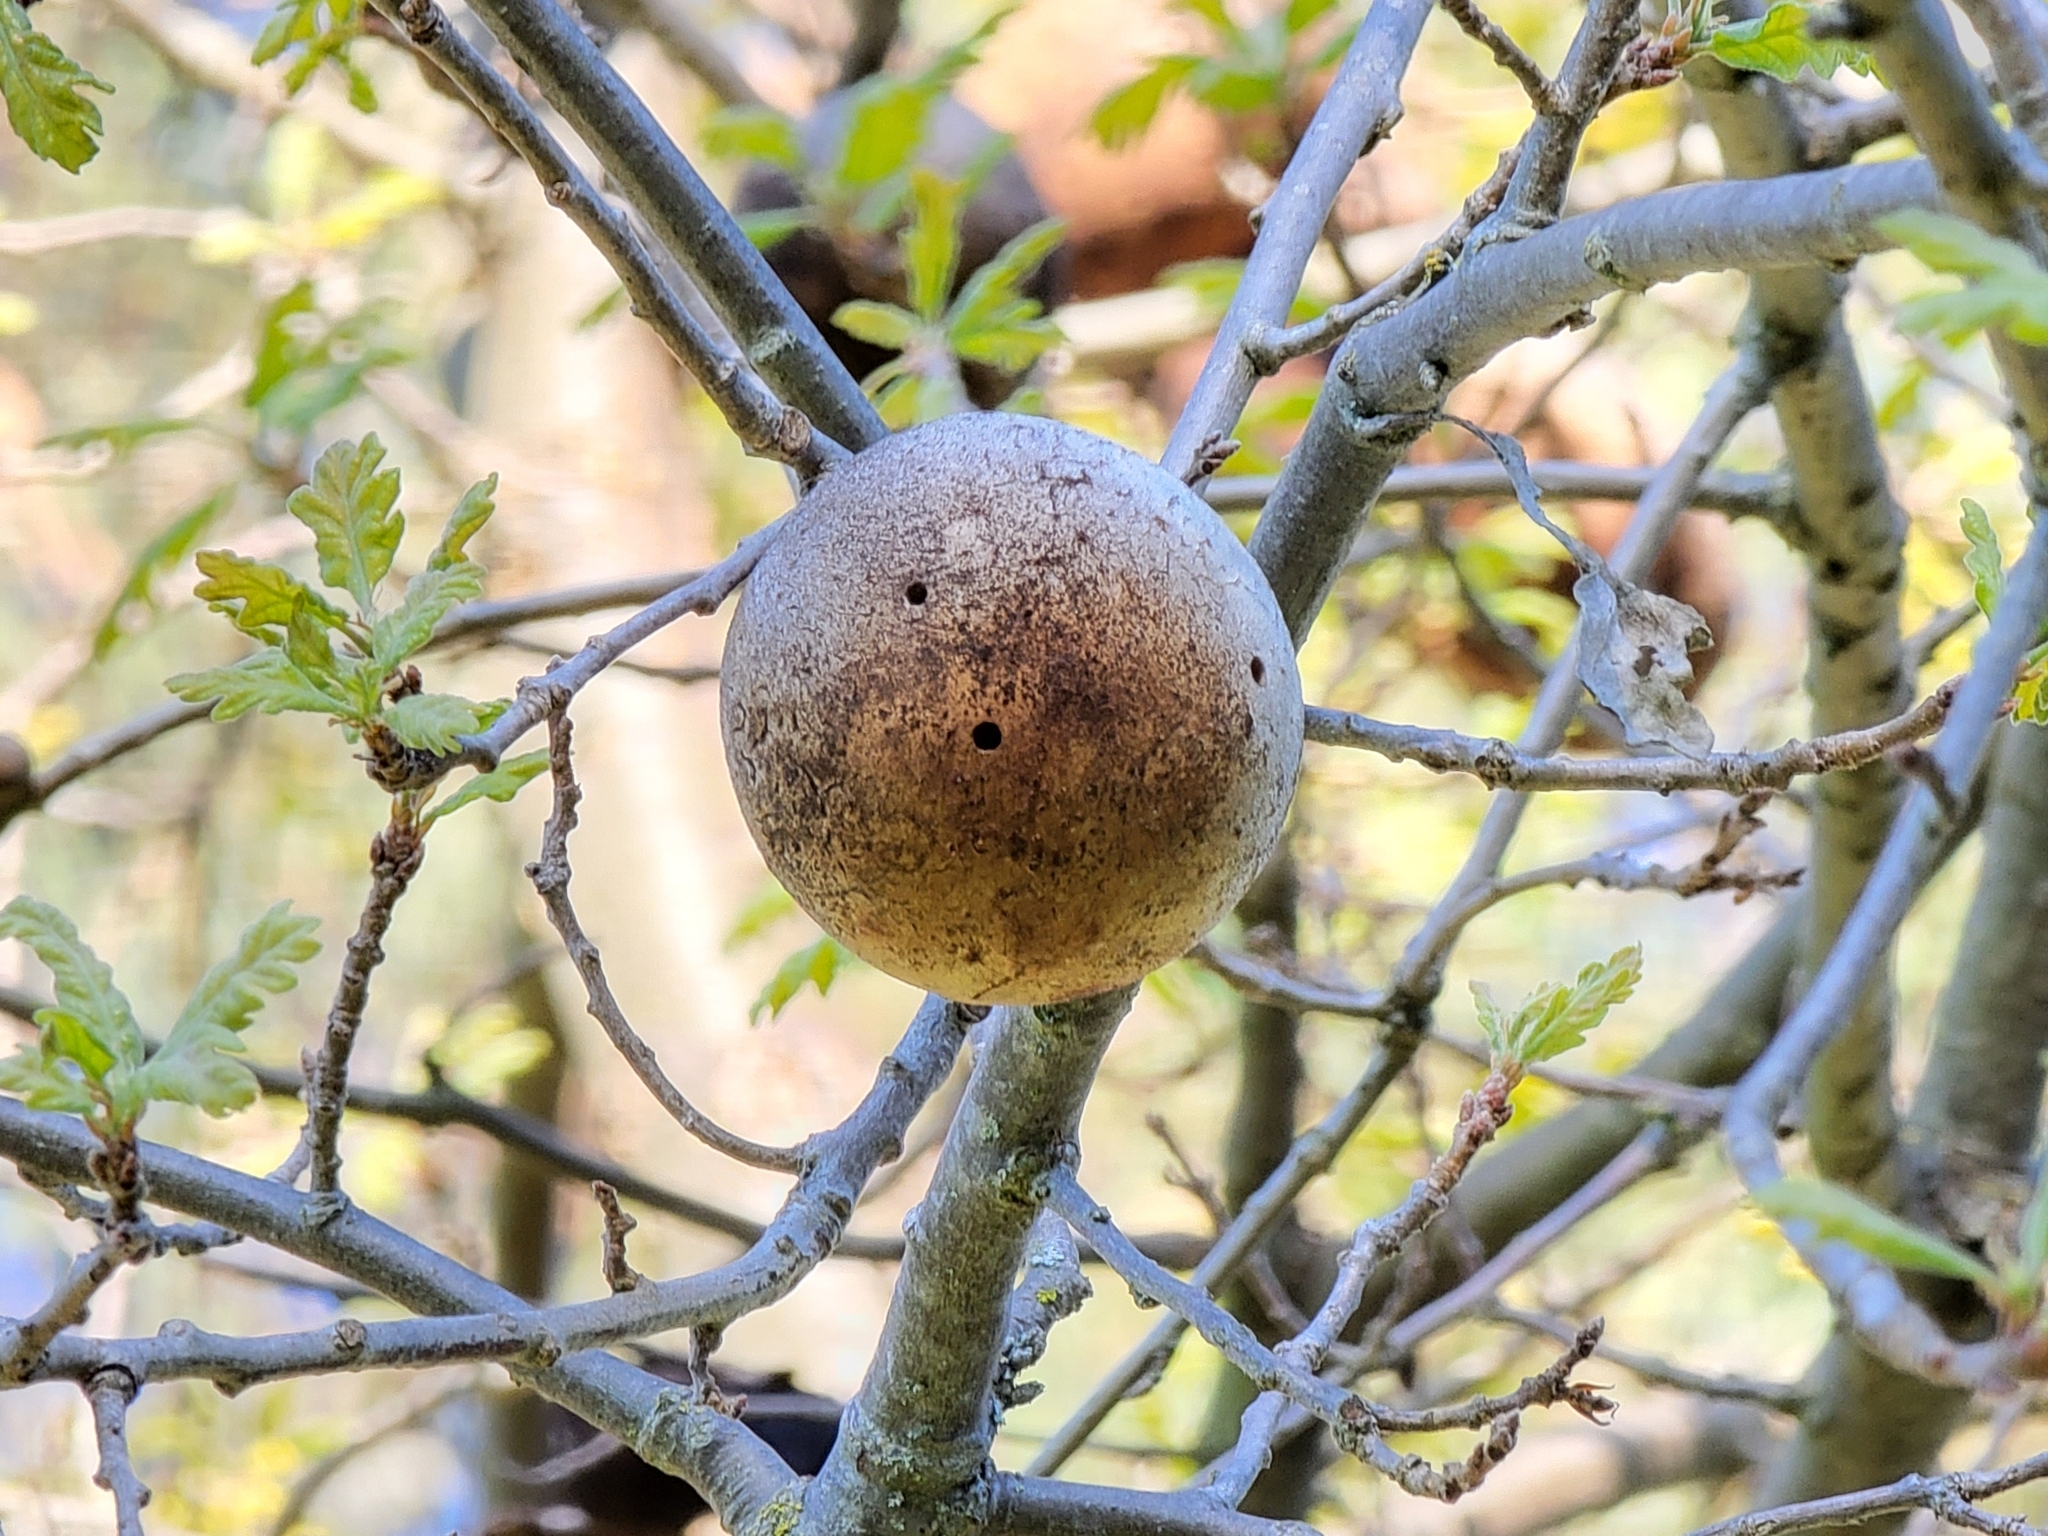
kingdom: Animalia
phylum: Arthropoda
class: Insecta
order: Hymenoptera
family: Cynipidae
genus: Andricus
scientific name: Andricus quercuscalifornicus
